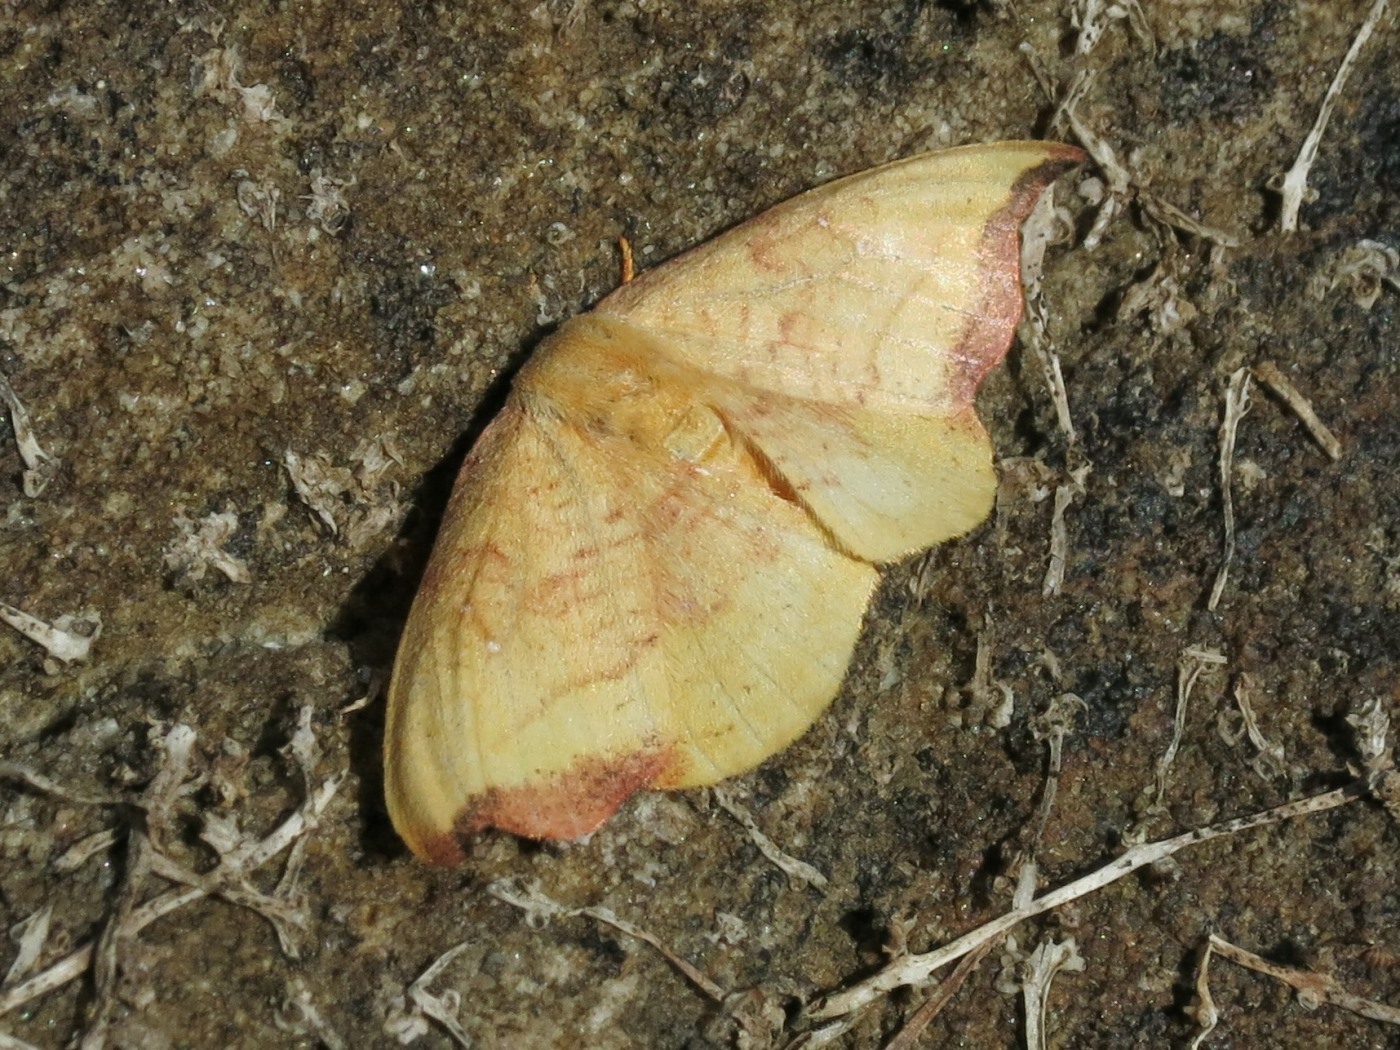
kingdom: Animalia
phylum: Arthropoda
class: Insecta
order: Lepidoptera
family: Drepanidae
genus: Oreta
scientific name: Oreta rosea
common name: Rose hooktip
